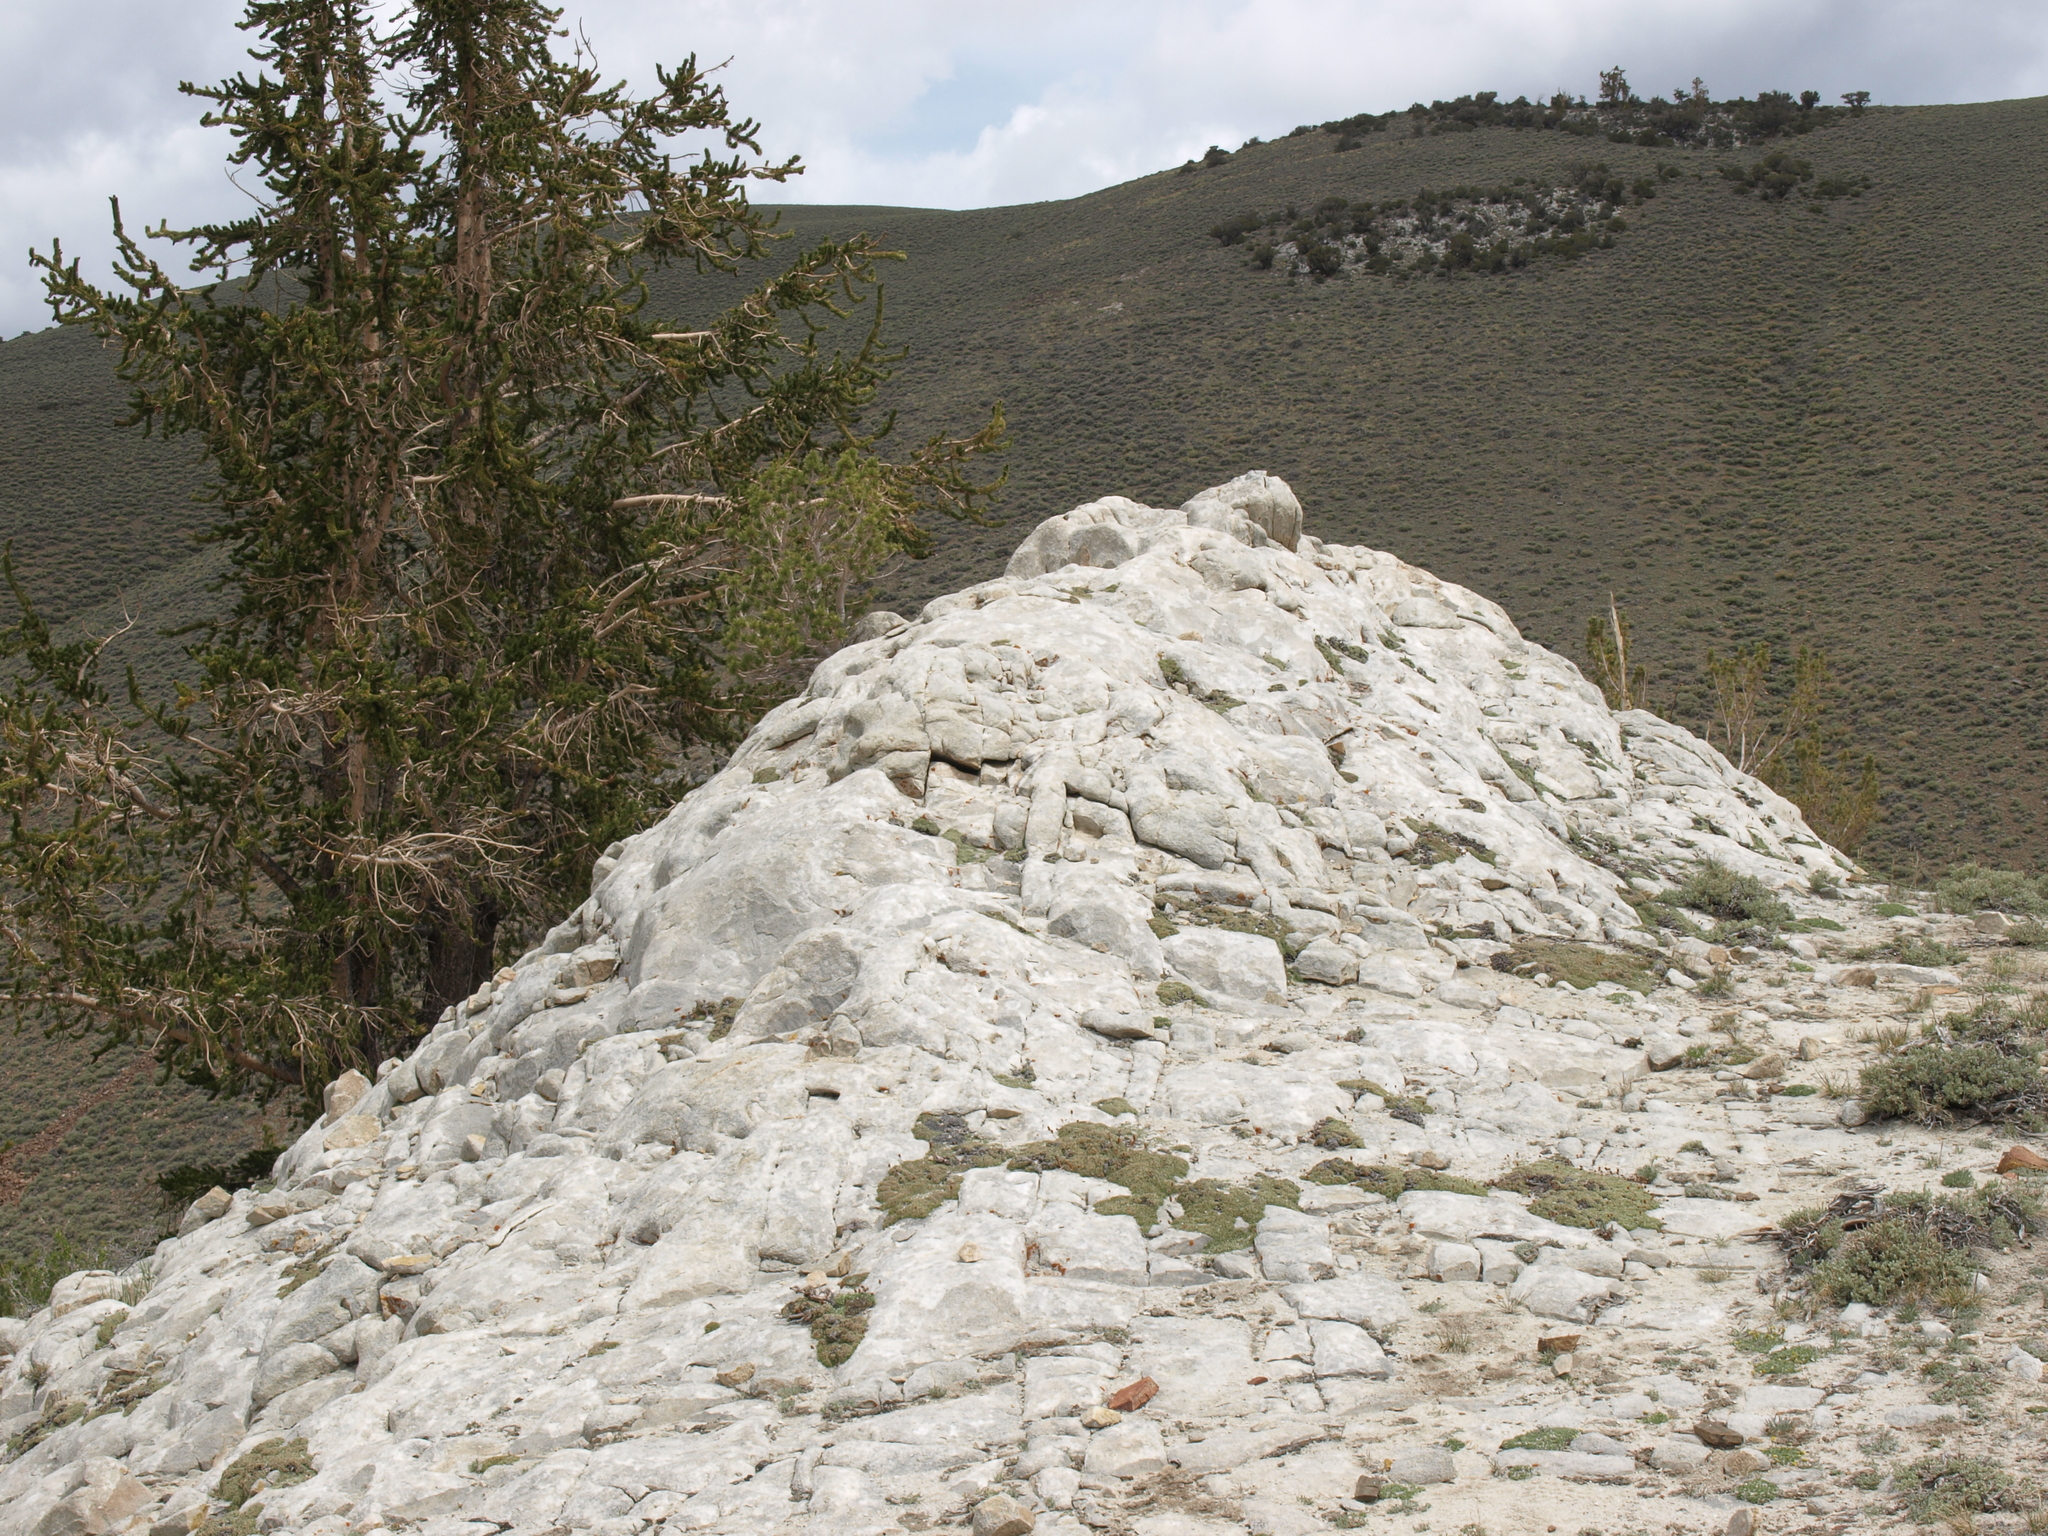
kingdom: Plantae
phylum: Tracheophyta
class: Magnoliopsida
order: Rosales
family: Rosaceae
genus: Petrophytum
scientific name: Petrophytum caespitosum
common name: Mat rockspirea
